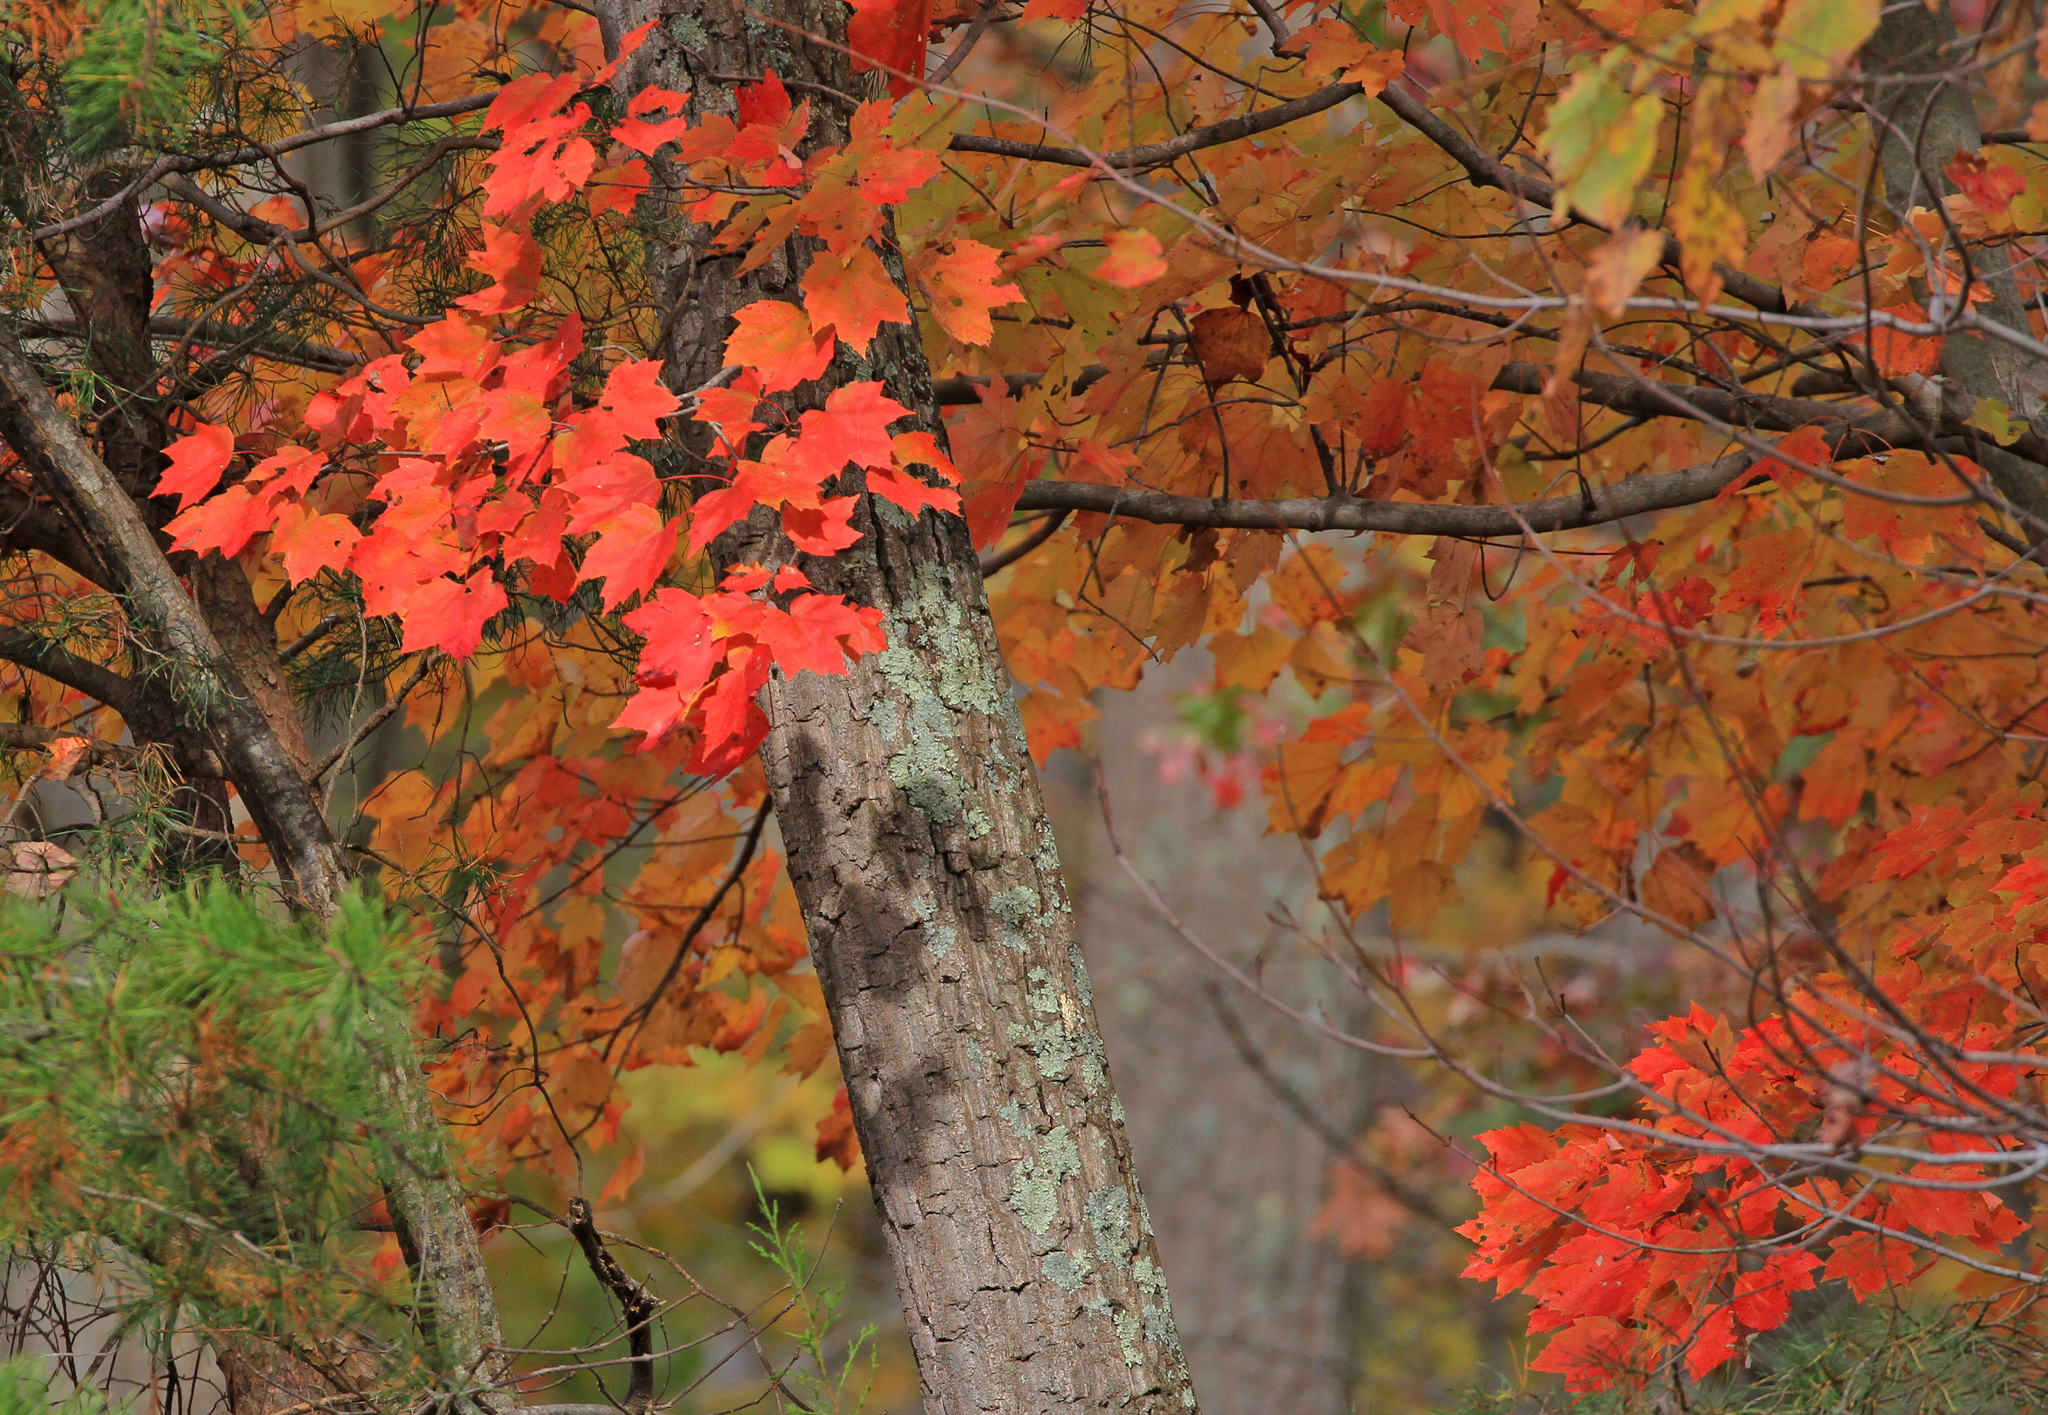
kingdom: Plantae
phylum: Tracheophyta
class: Magnoliopsida
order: Sapindales
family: Sapindaceae
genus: Acer
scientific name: Acer rubrum
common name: Red maple
